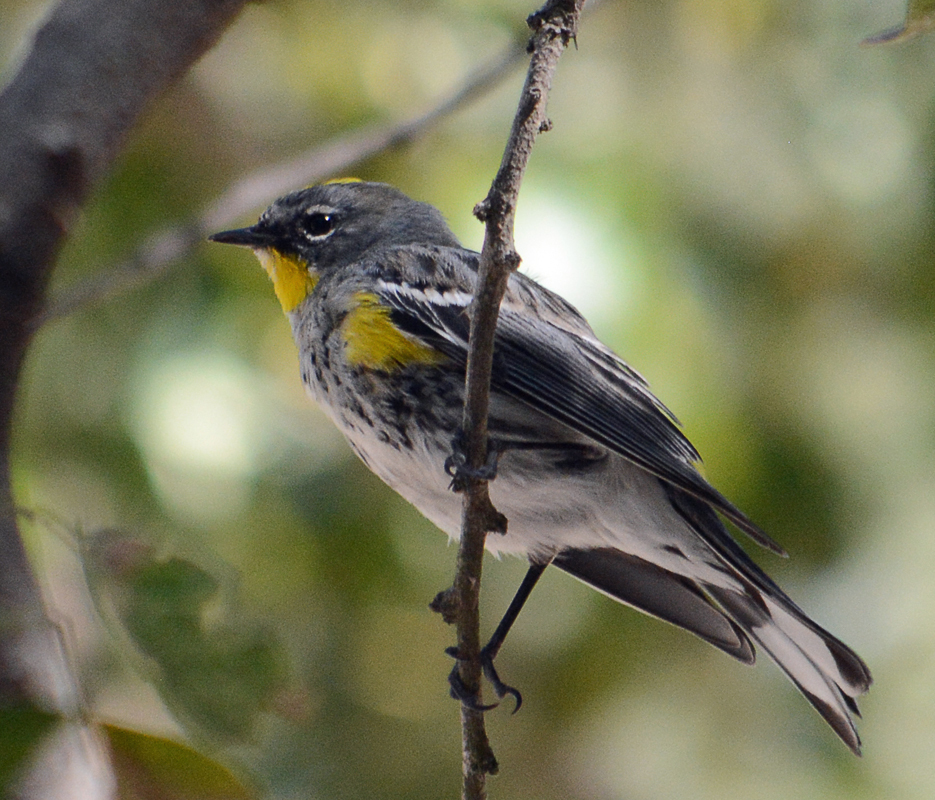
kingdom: Animalia
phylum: Chordata
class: Aves
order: Passeriformes
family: Parulidae
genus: Setophaga
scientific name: Setophaga auduboni
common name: Audubon's warbler
